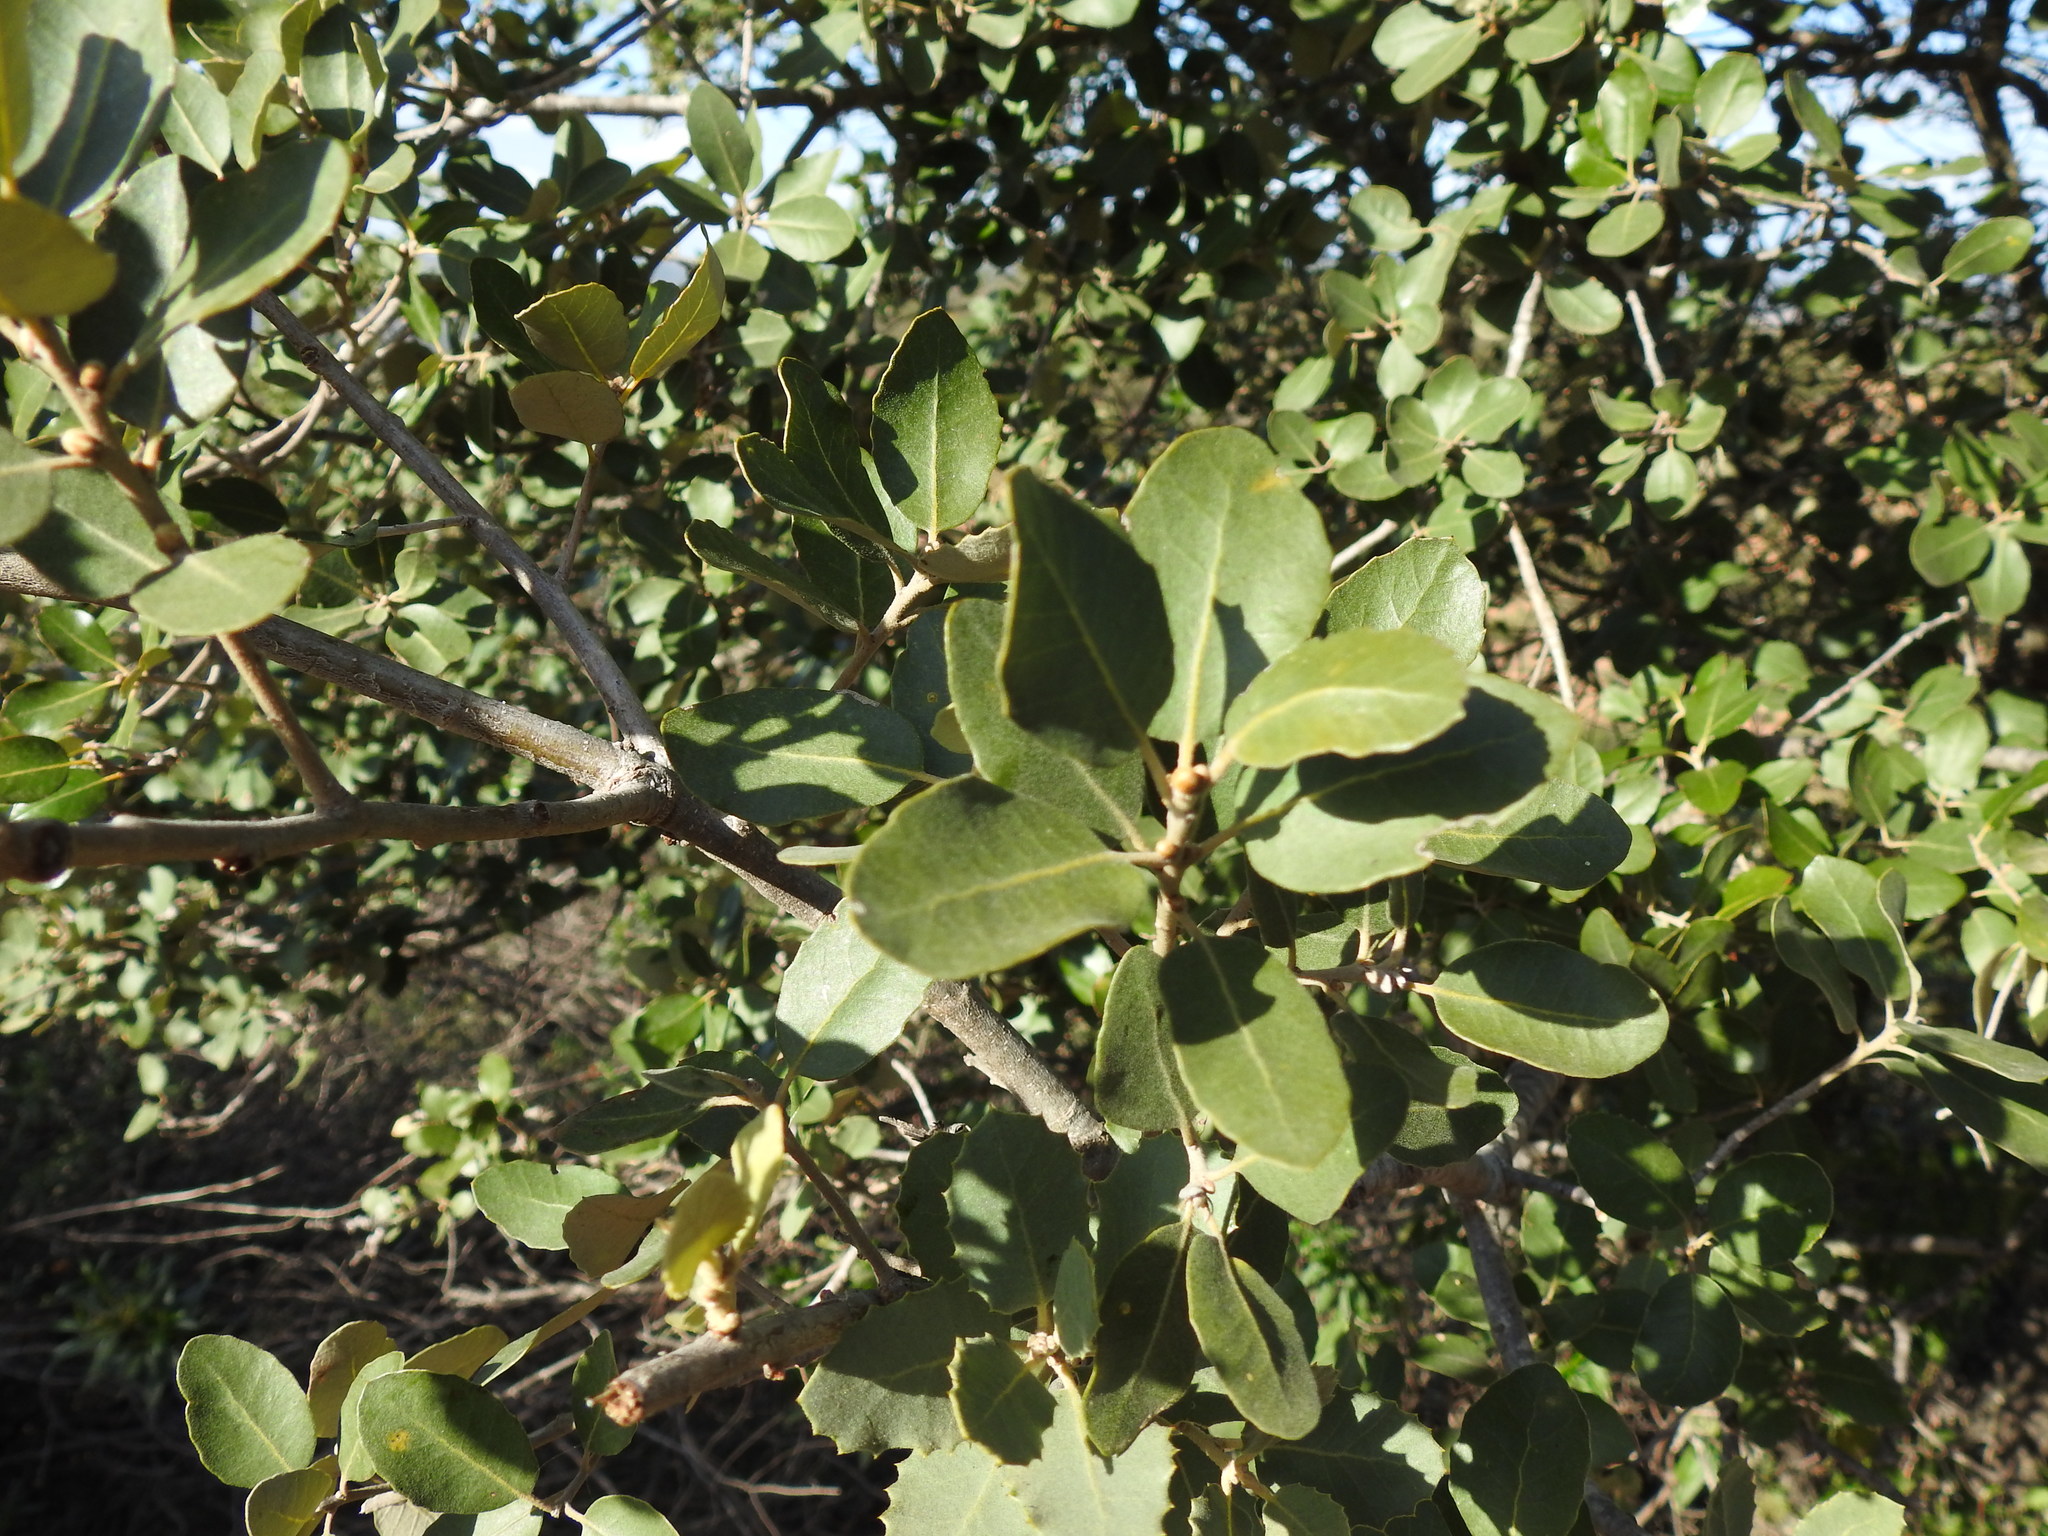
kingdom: Plantae
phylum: Tracheophyta
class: Magnoliopsida
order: Fagales
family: Fagaceae
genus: Quercus
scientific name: Quercus rotundifolia
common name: Holm oak
